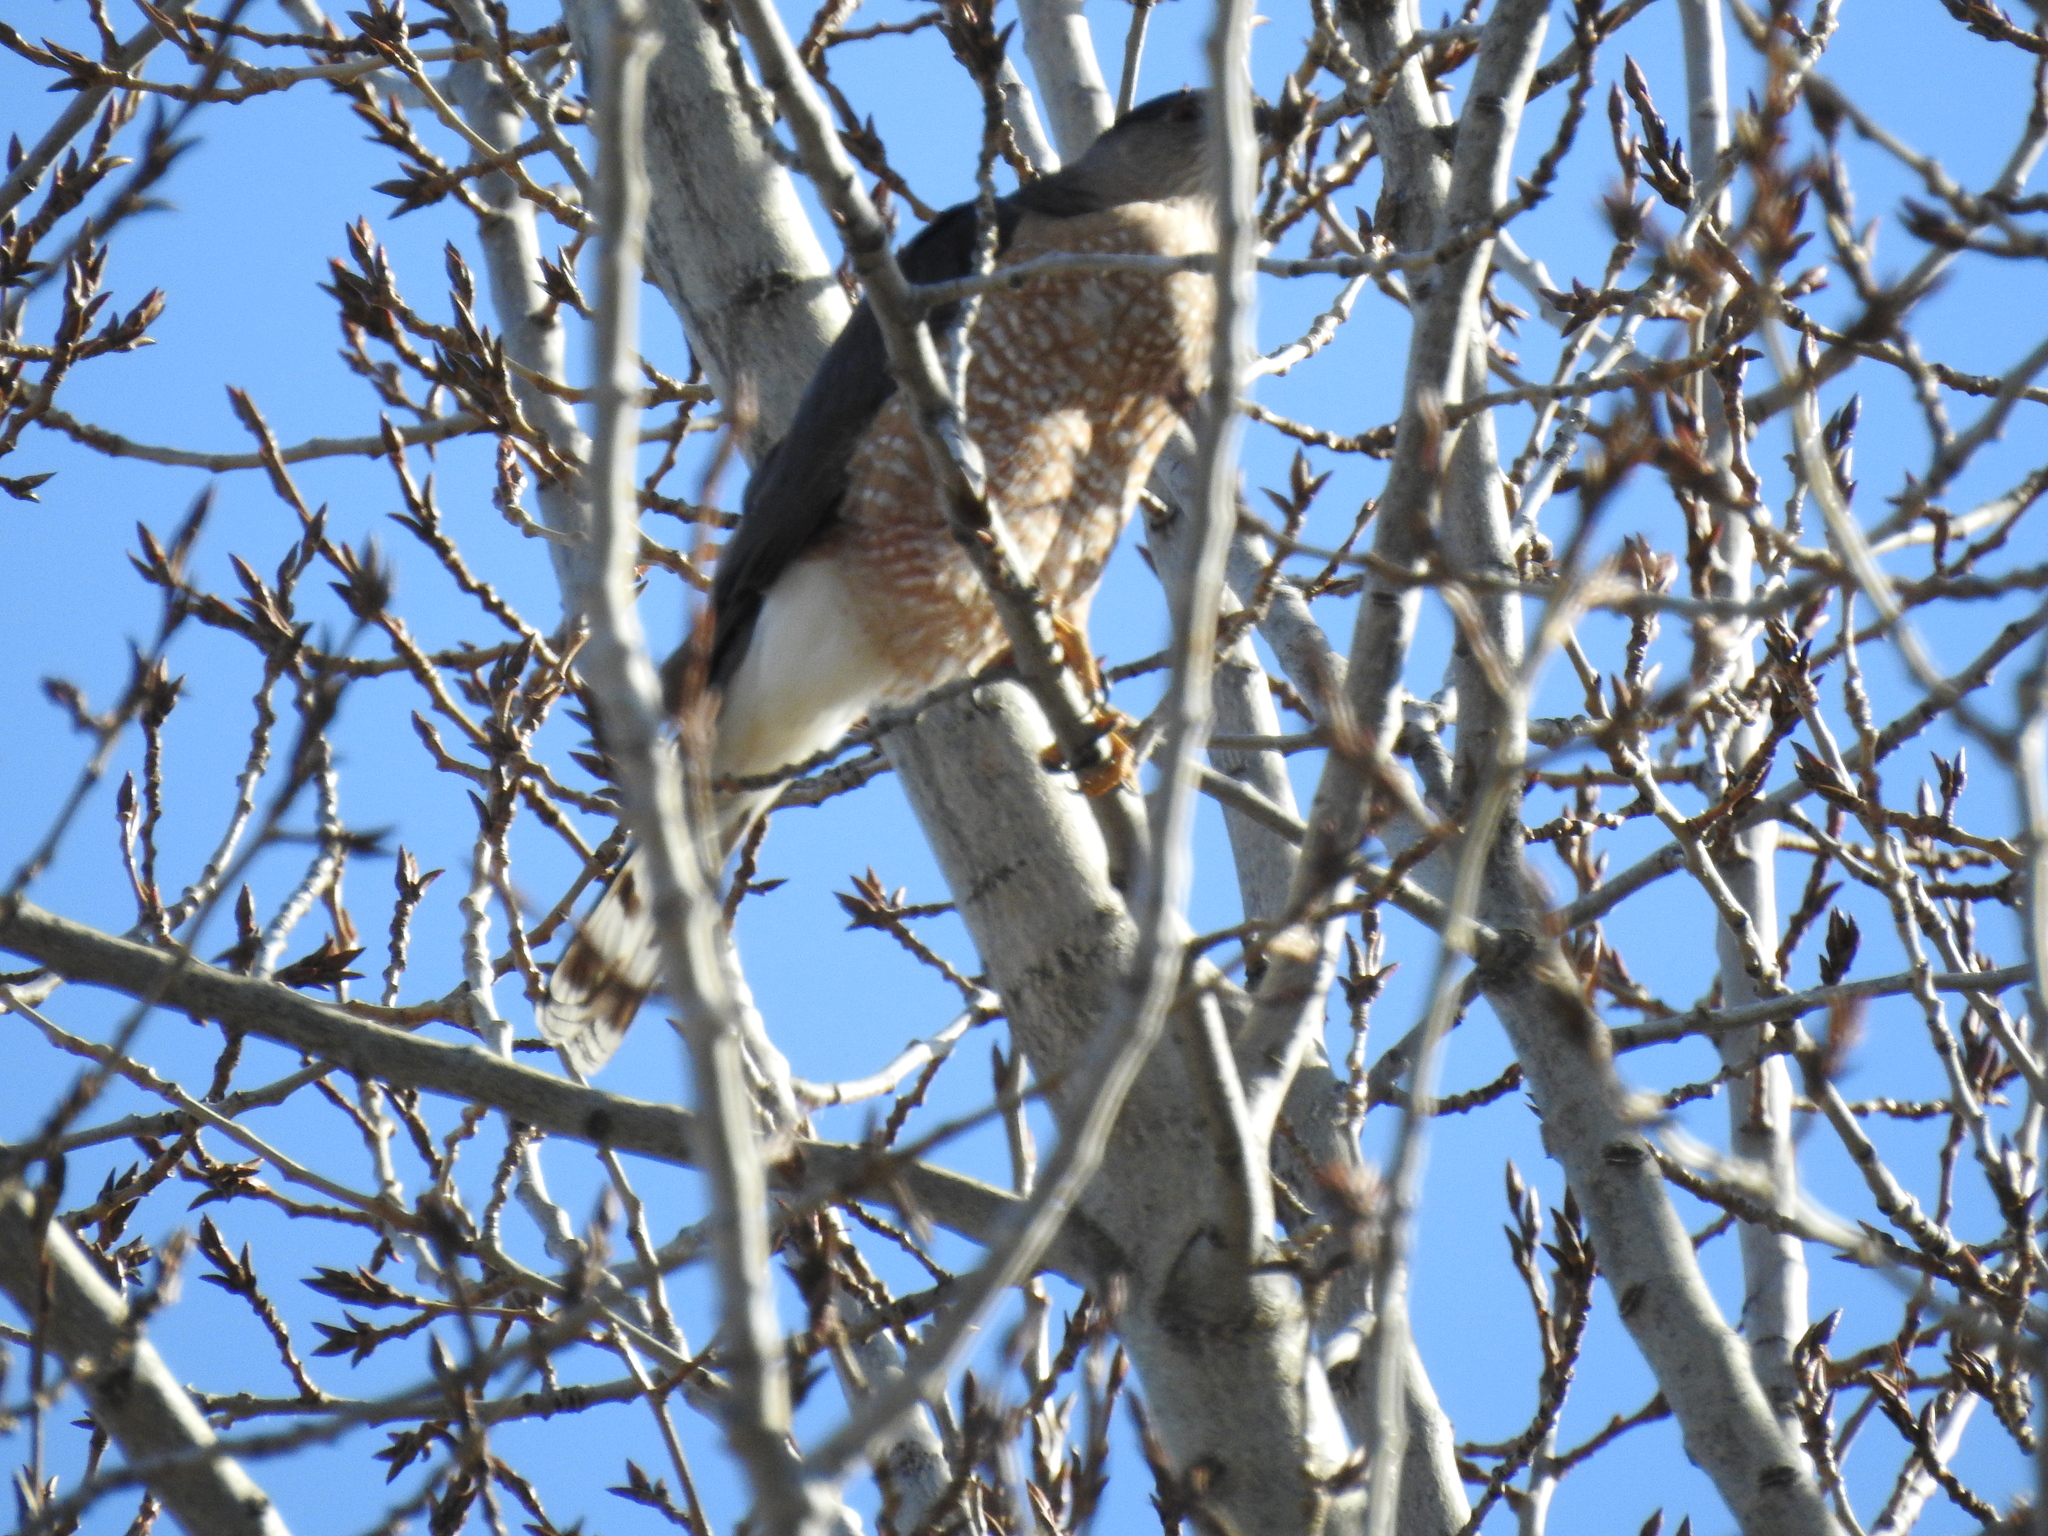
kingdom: Animalia
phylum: Chordata
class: Aves
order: Accipitriformes
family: Accipitridae
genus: Accipiter
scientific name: Accipiter cooperii
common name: Cooper's hawk
